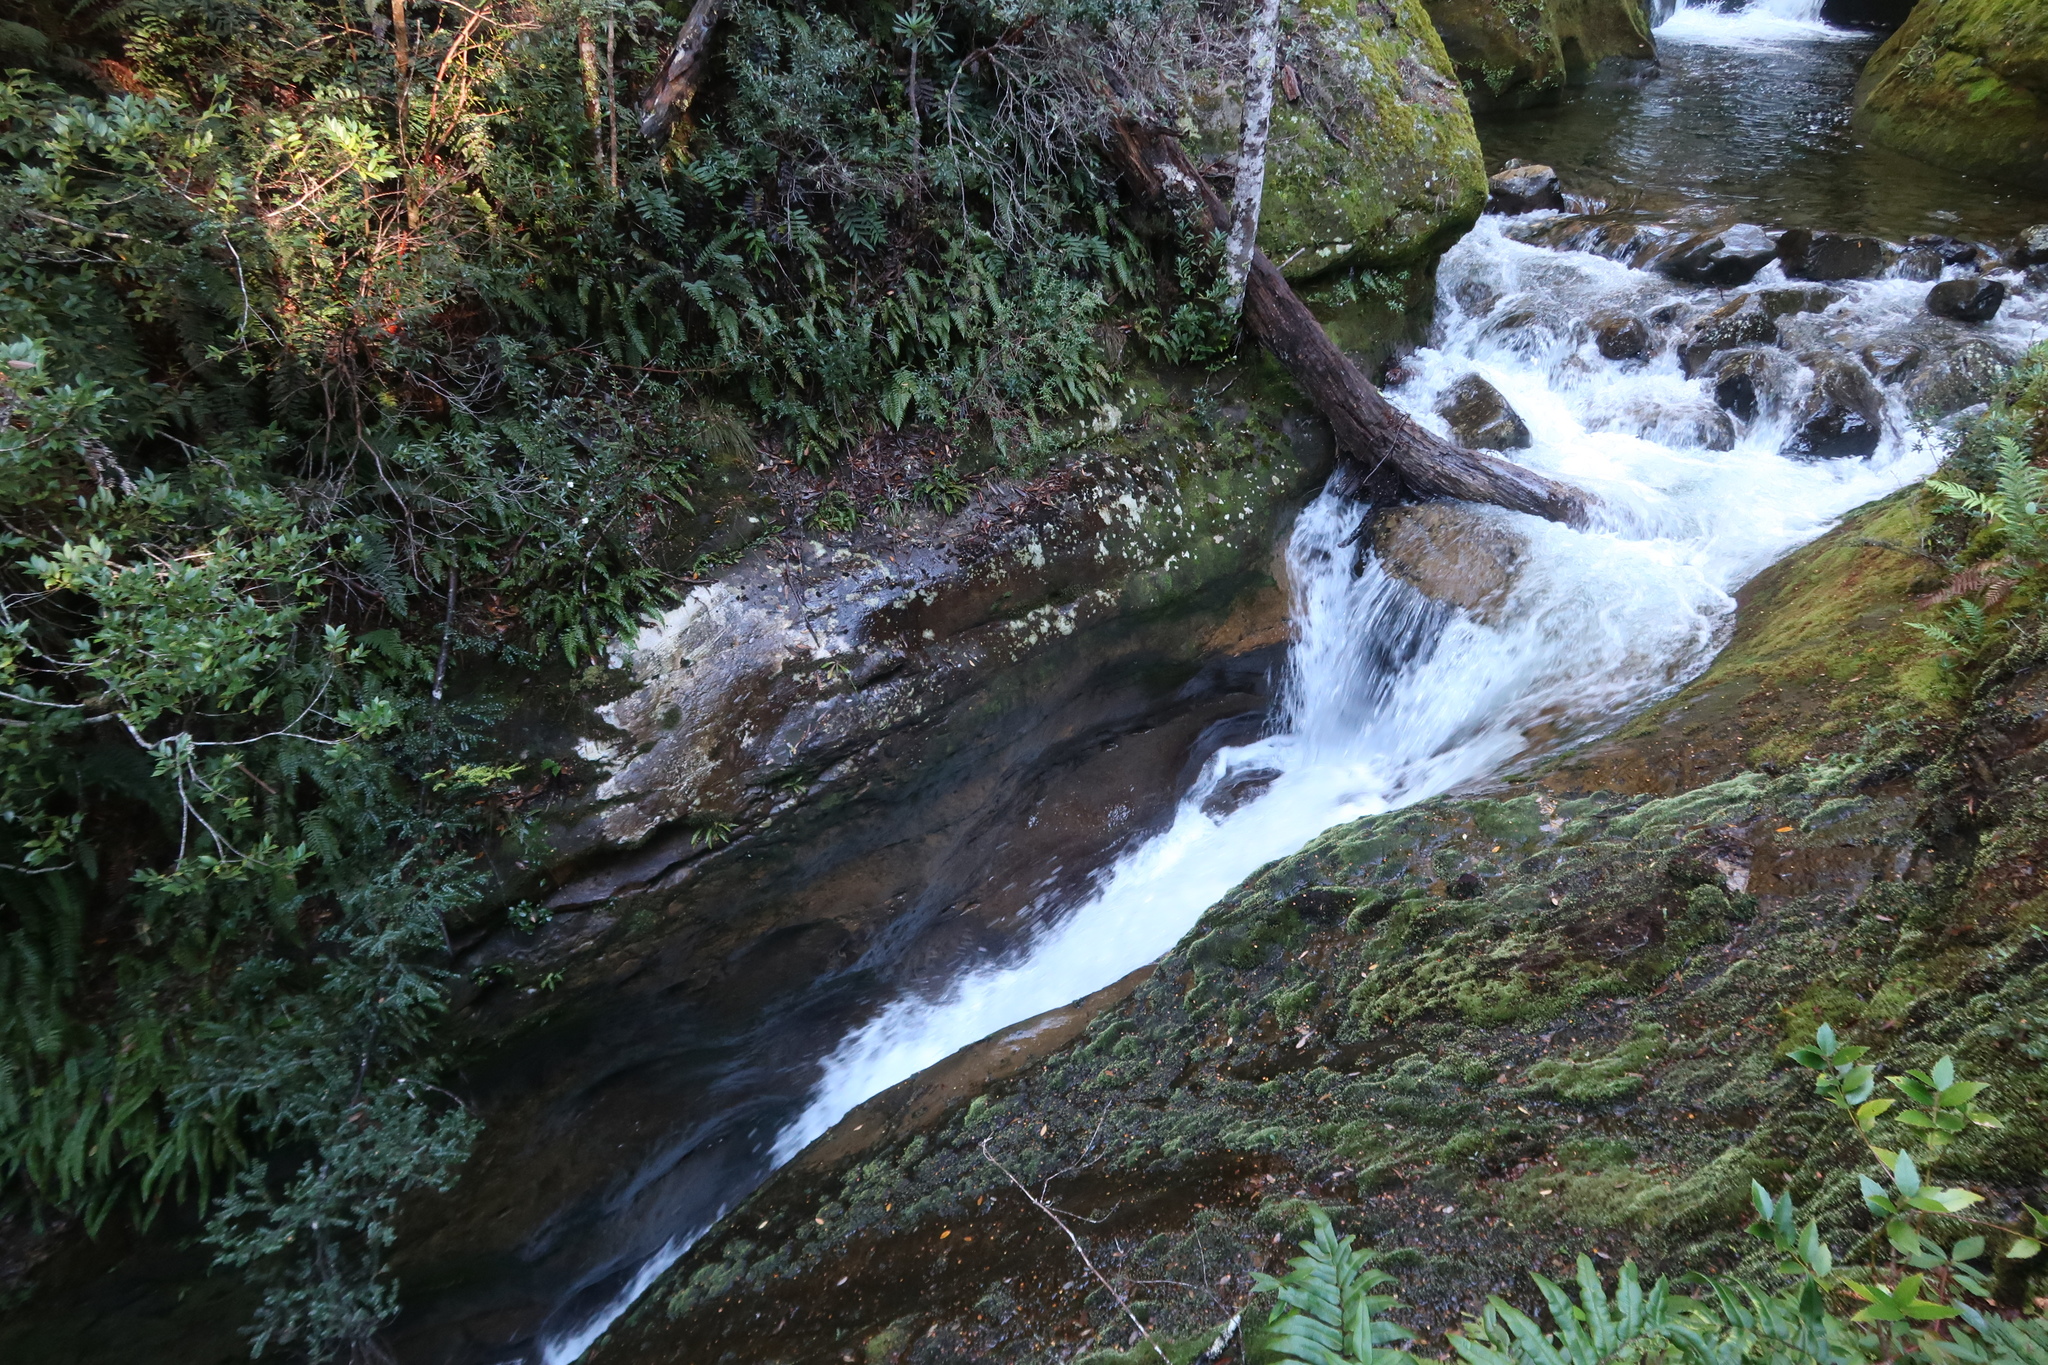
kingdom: Plantae
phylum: Tracheophyta
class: Magnoliopsida
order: Ericales
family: Ericaceae
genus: Gaultheria
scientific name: Gaultheria hispida
